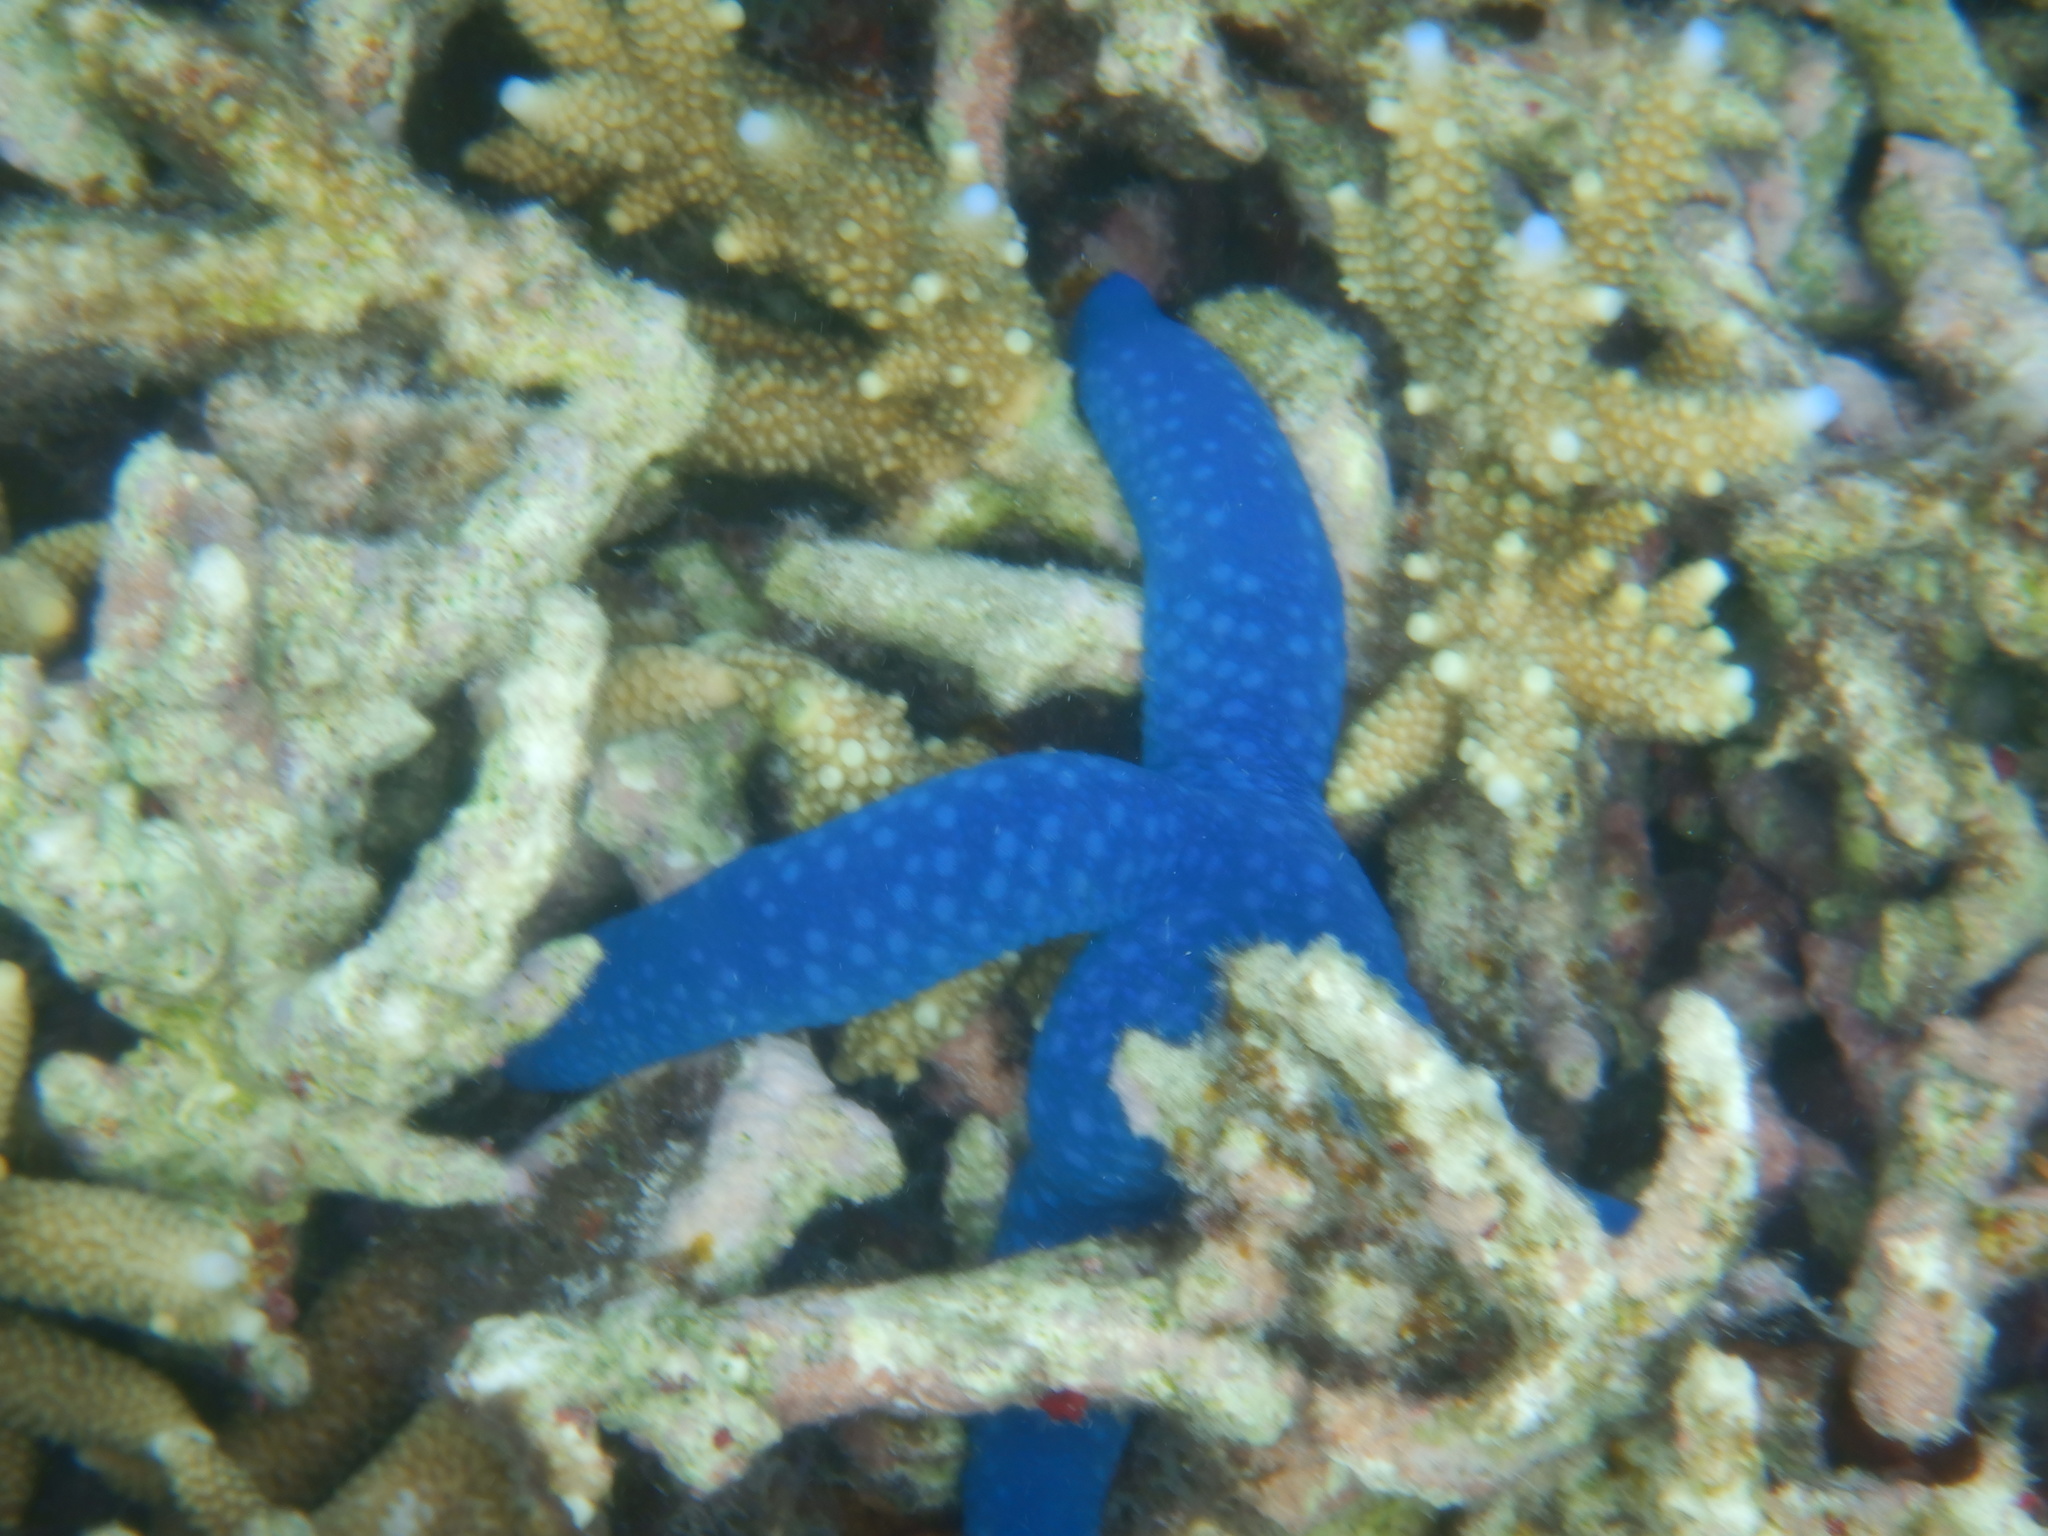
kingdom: Animalia
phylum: Echinodermata
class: Asteroidea
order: Valvatida
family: Ophidiasteridae
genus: Linckia
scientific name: Linckia laevigata
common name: Azure sea star
